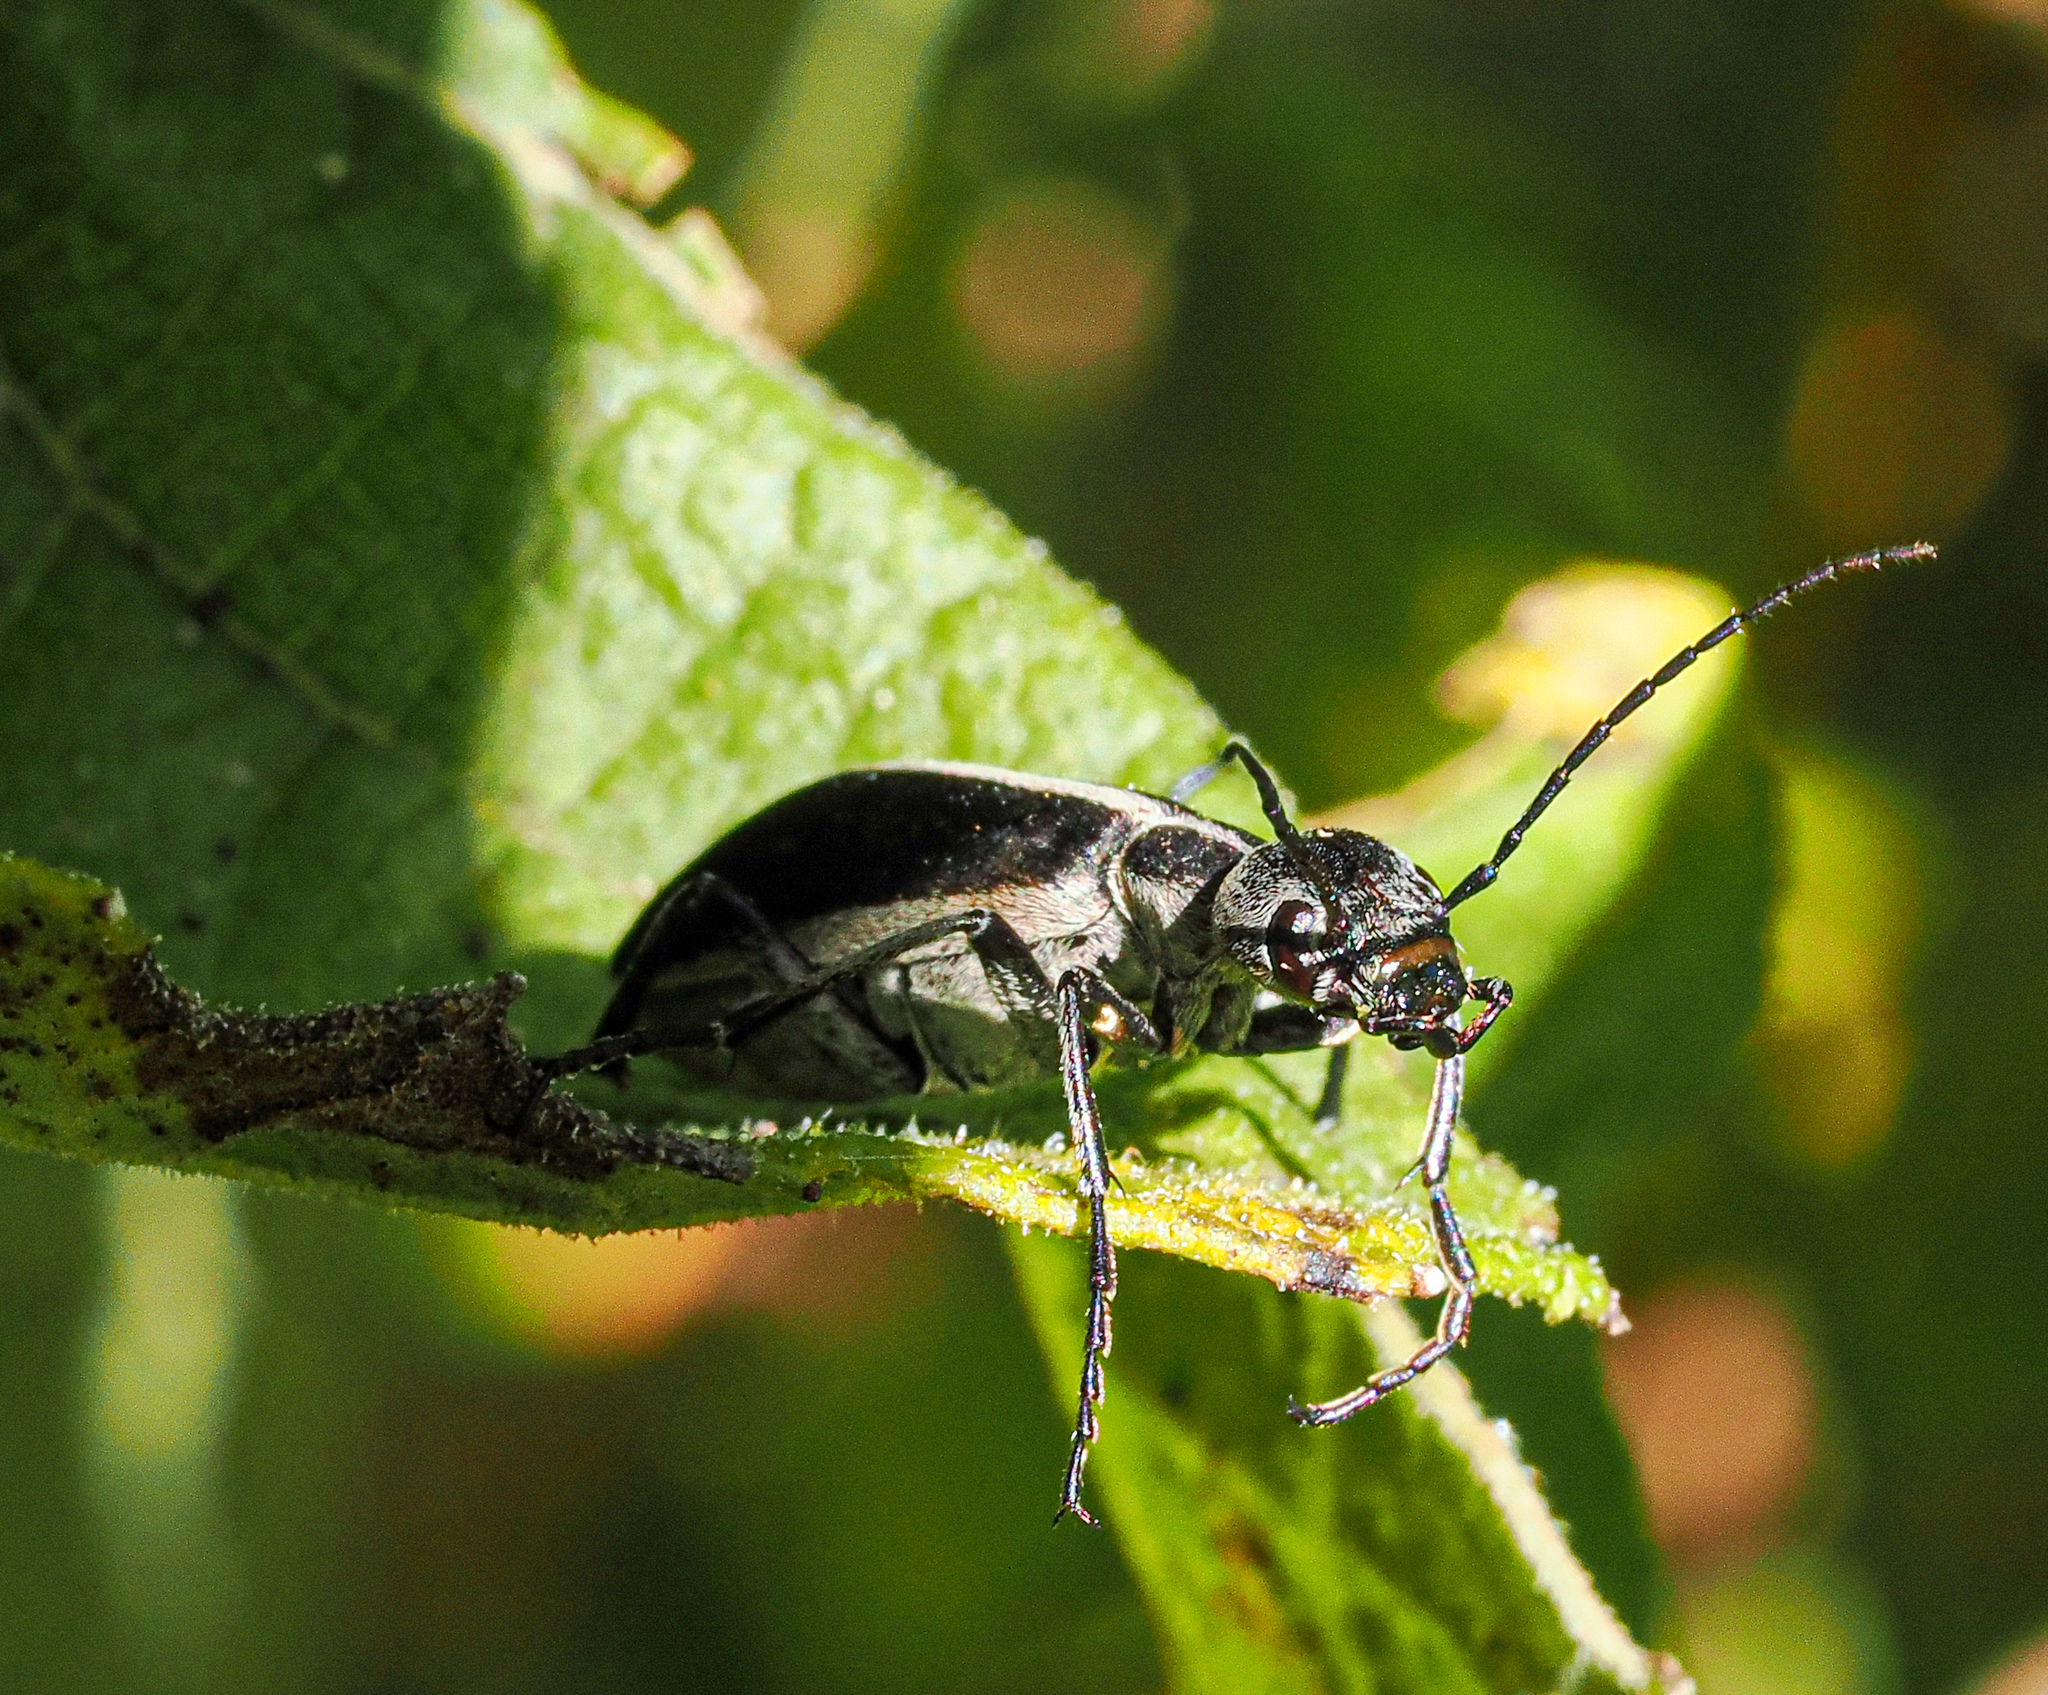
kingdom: Animalia
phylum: Arthropoda
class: Insecta
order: Coleoptera
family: Meloidae
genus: Epicauta
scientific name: Epicauta funebris
